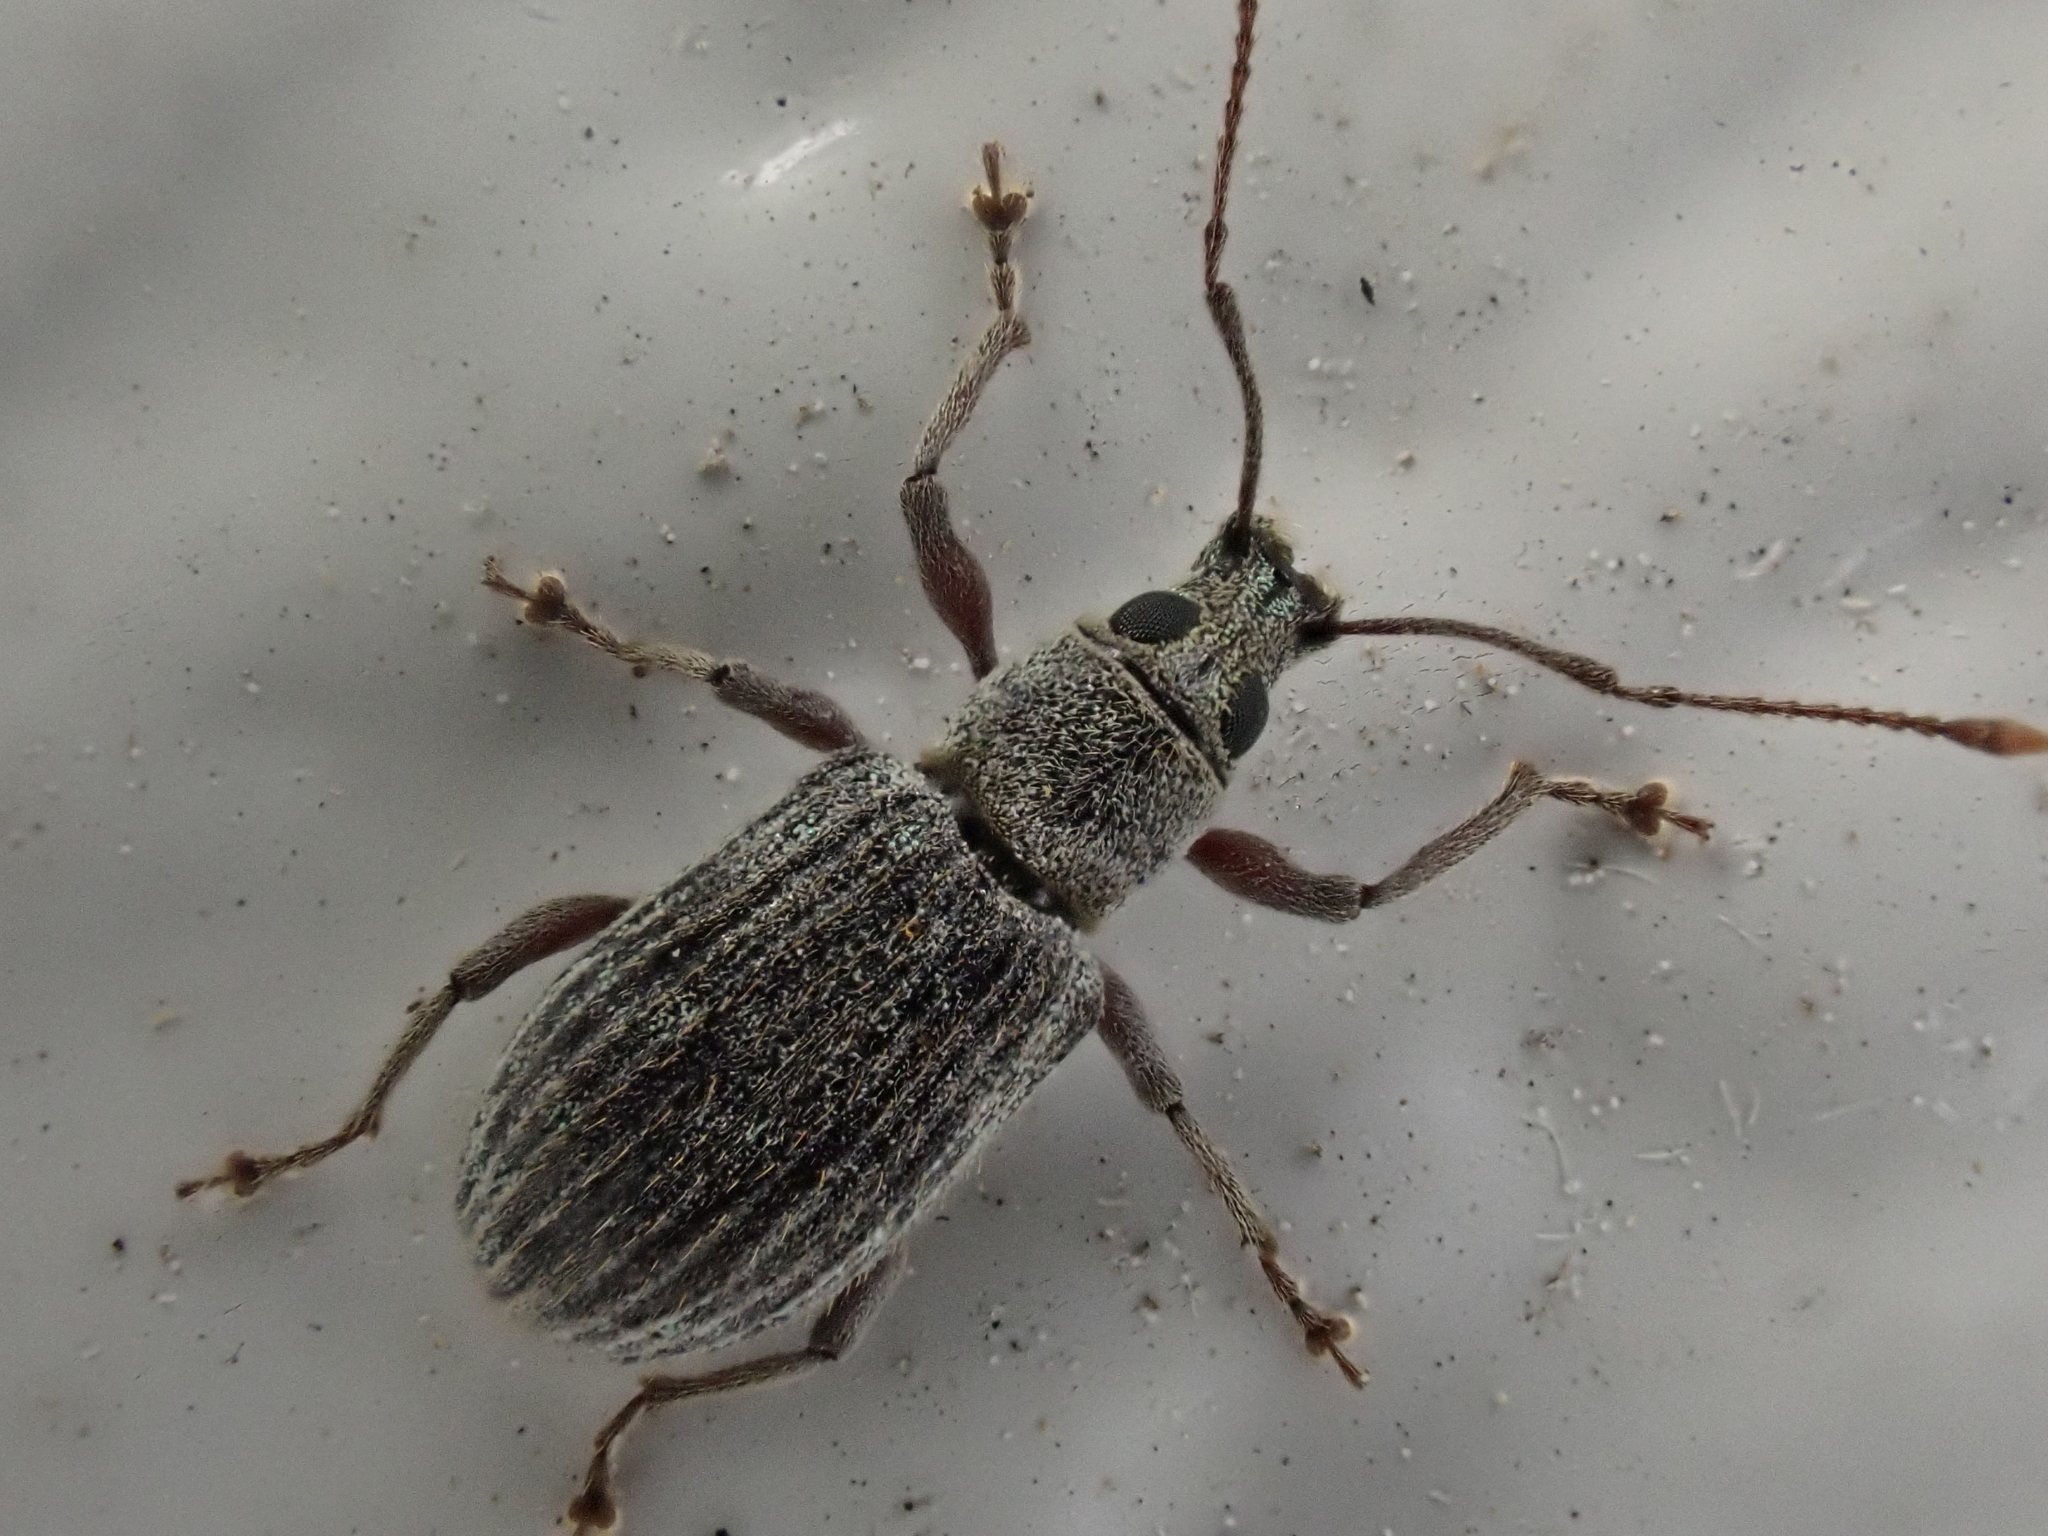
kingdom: Animalia
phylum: Arthropoda
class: Insecta
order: Coleoptera
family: Curculionidae
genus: Cyrtepistomus
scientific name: Cyrtepistomus castaneus
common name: Weevil
